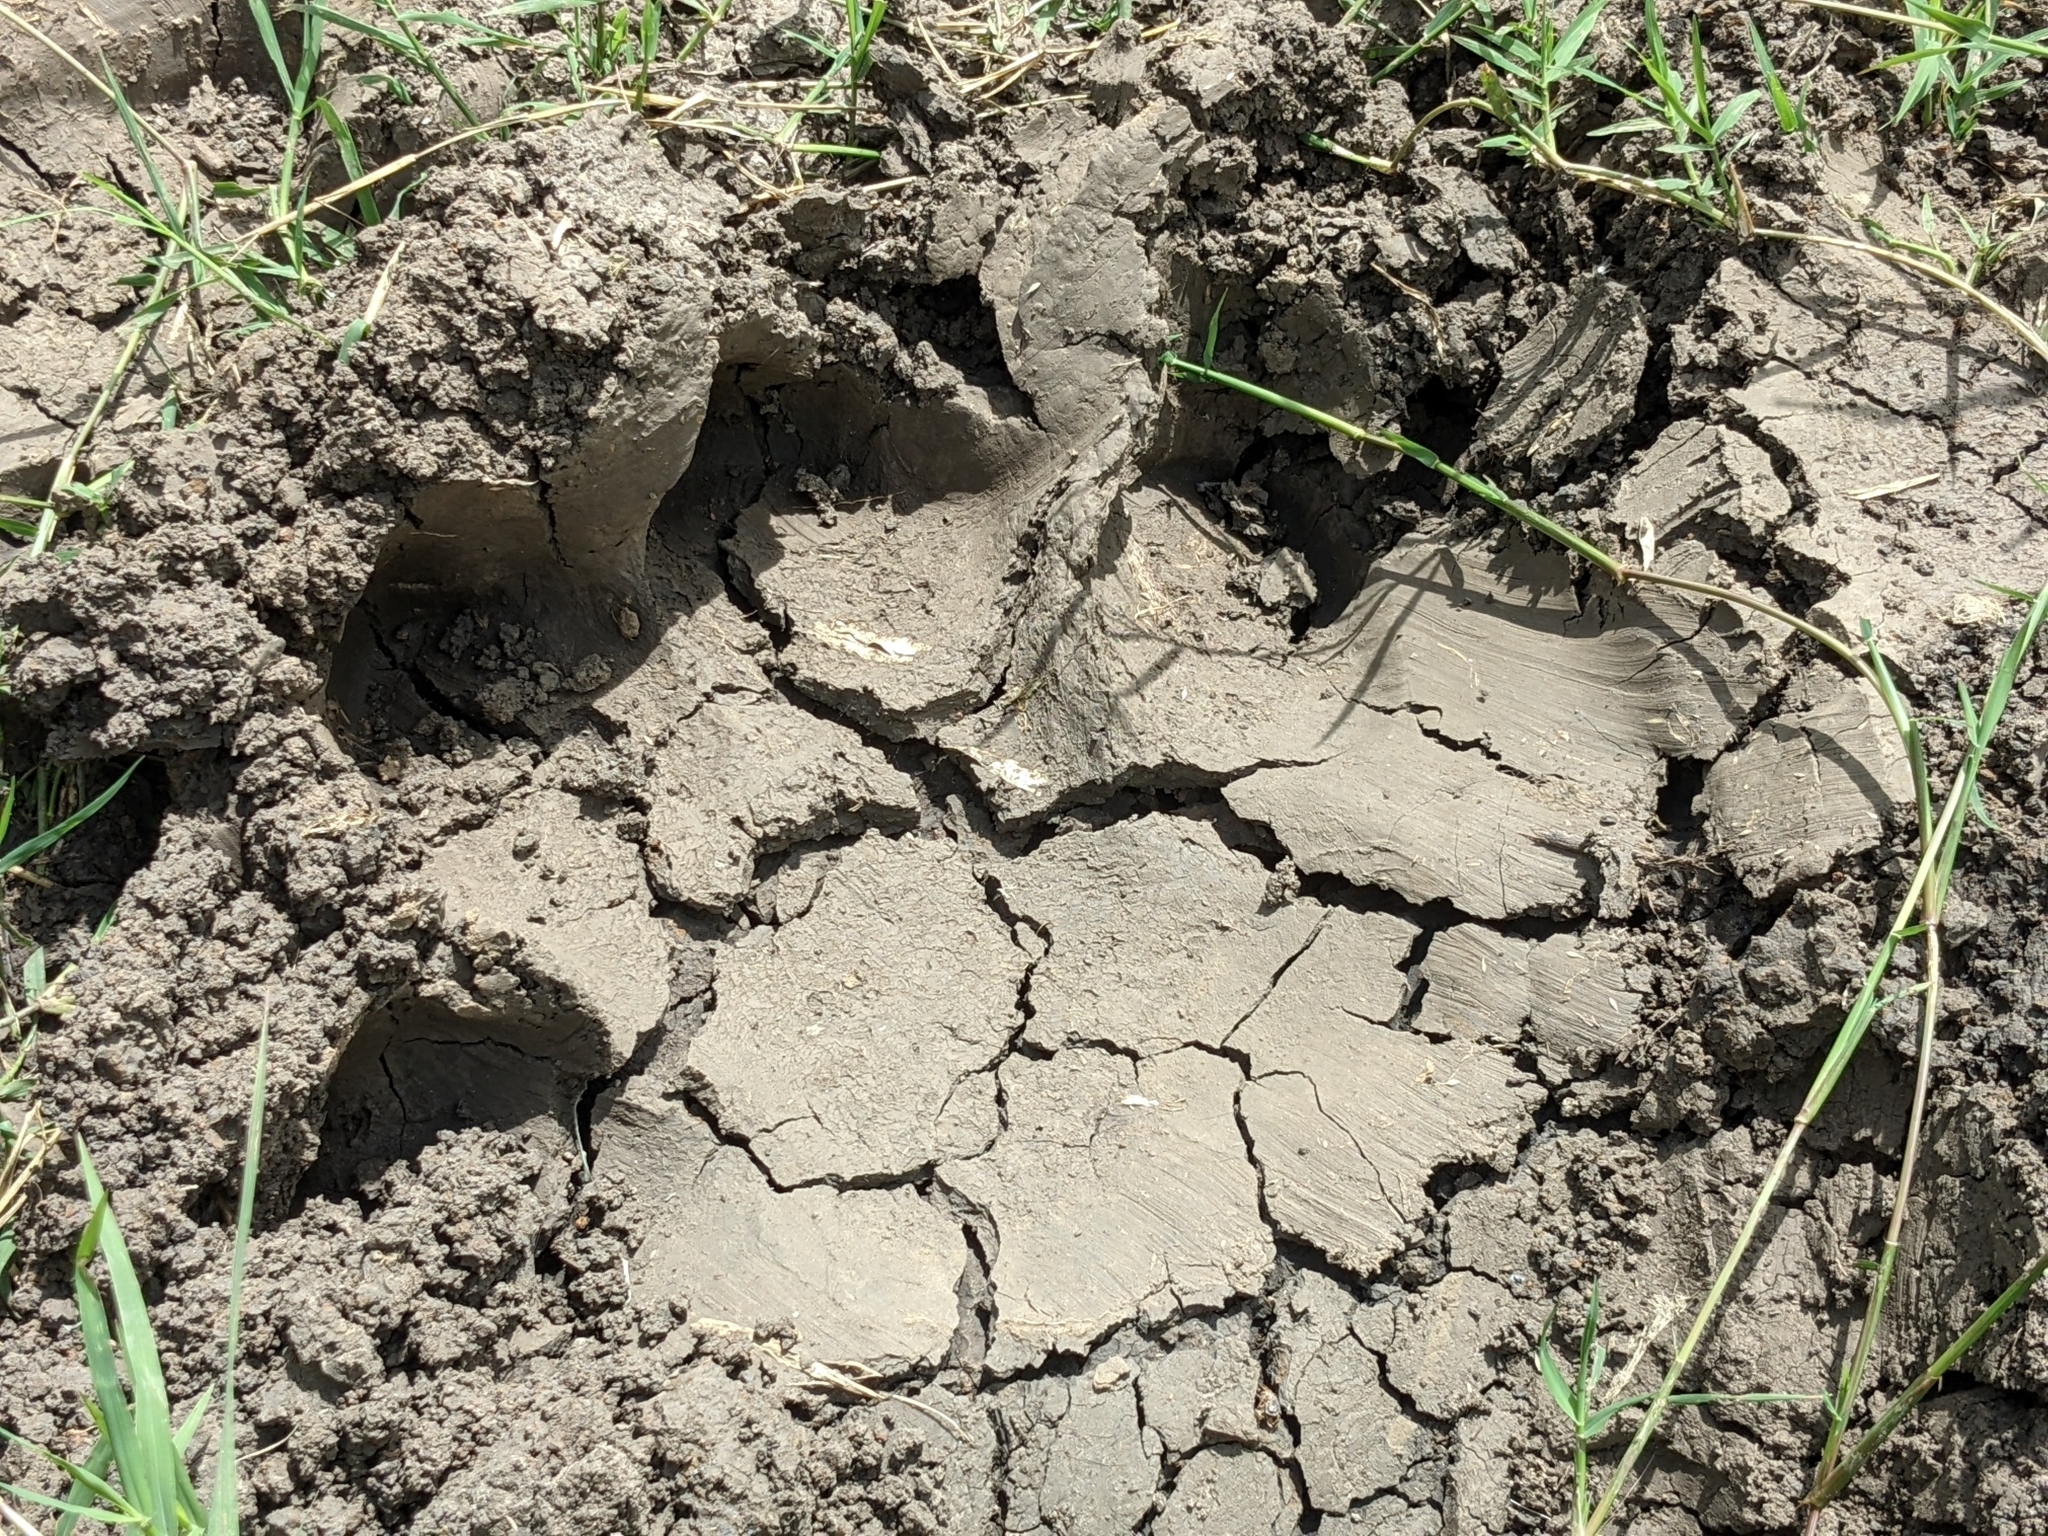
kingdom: Animalia
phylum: Chordata
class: Mammalia
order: Artiodactyla
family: Hippopotamidae
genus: Hippopotamus
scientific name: Hippopotamus amphibius
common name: Common hippopotamus
